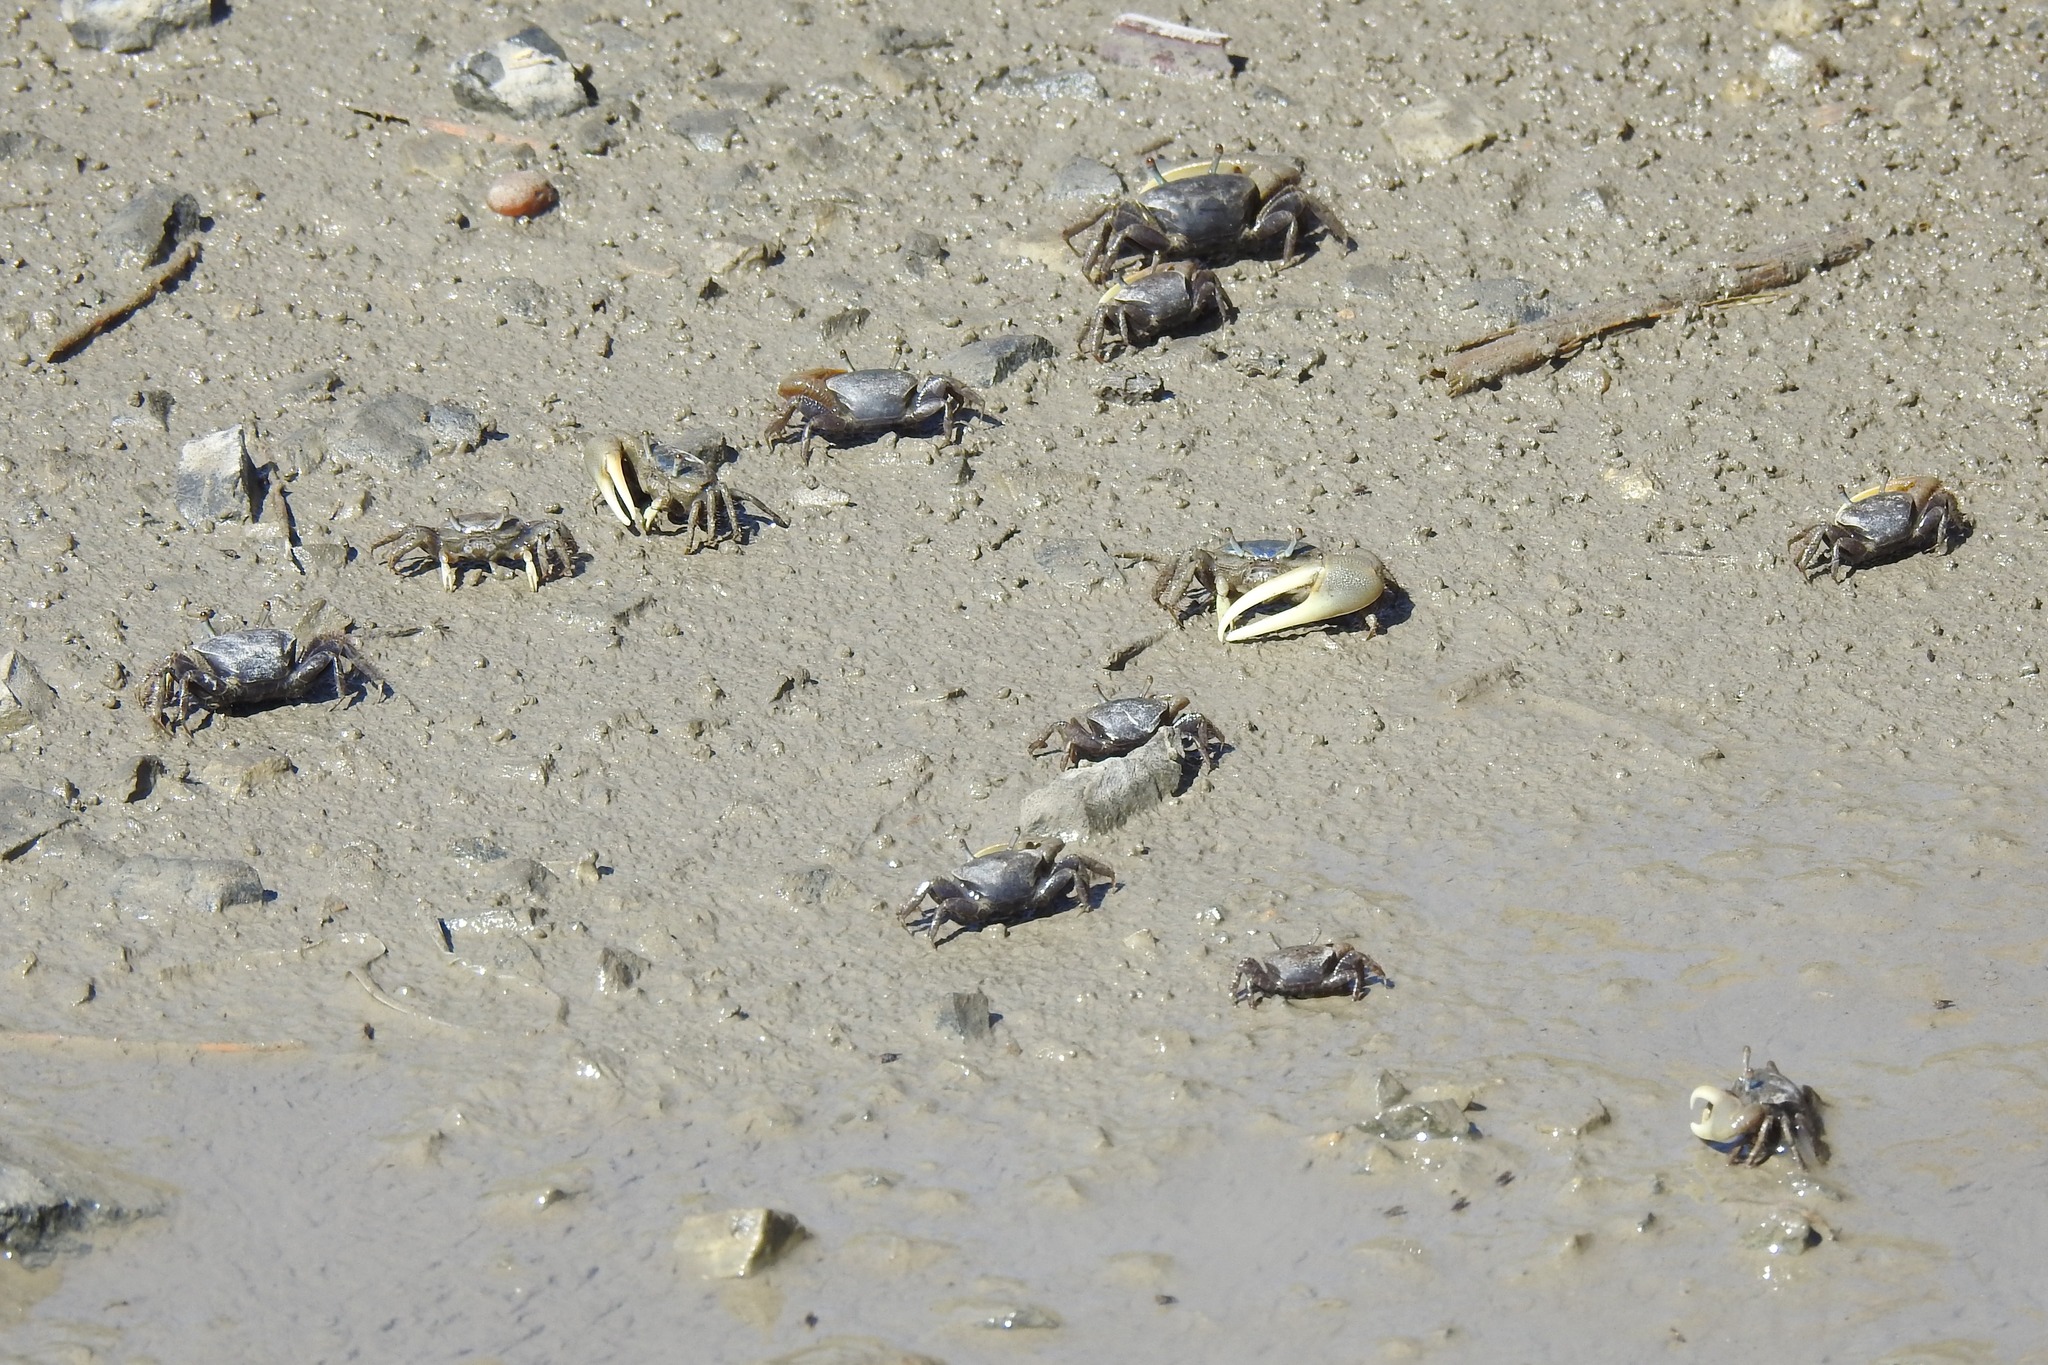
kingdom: Animalia
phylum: Arthropoda
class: Malacostraca
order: Decapoda
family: Ocypodidae
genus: Minuca
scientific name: Minuca pugnax
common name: Mud fiddler crab
